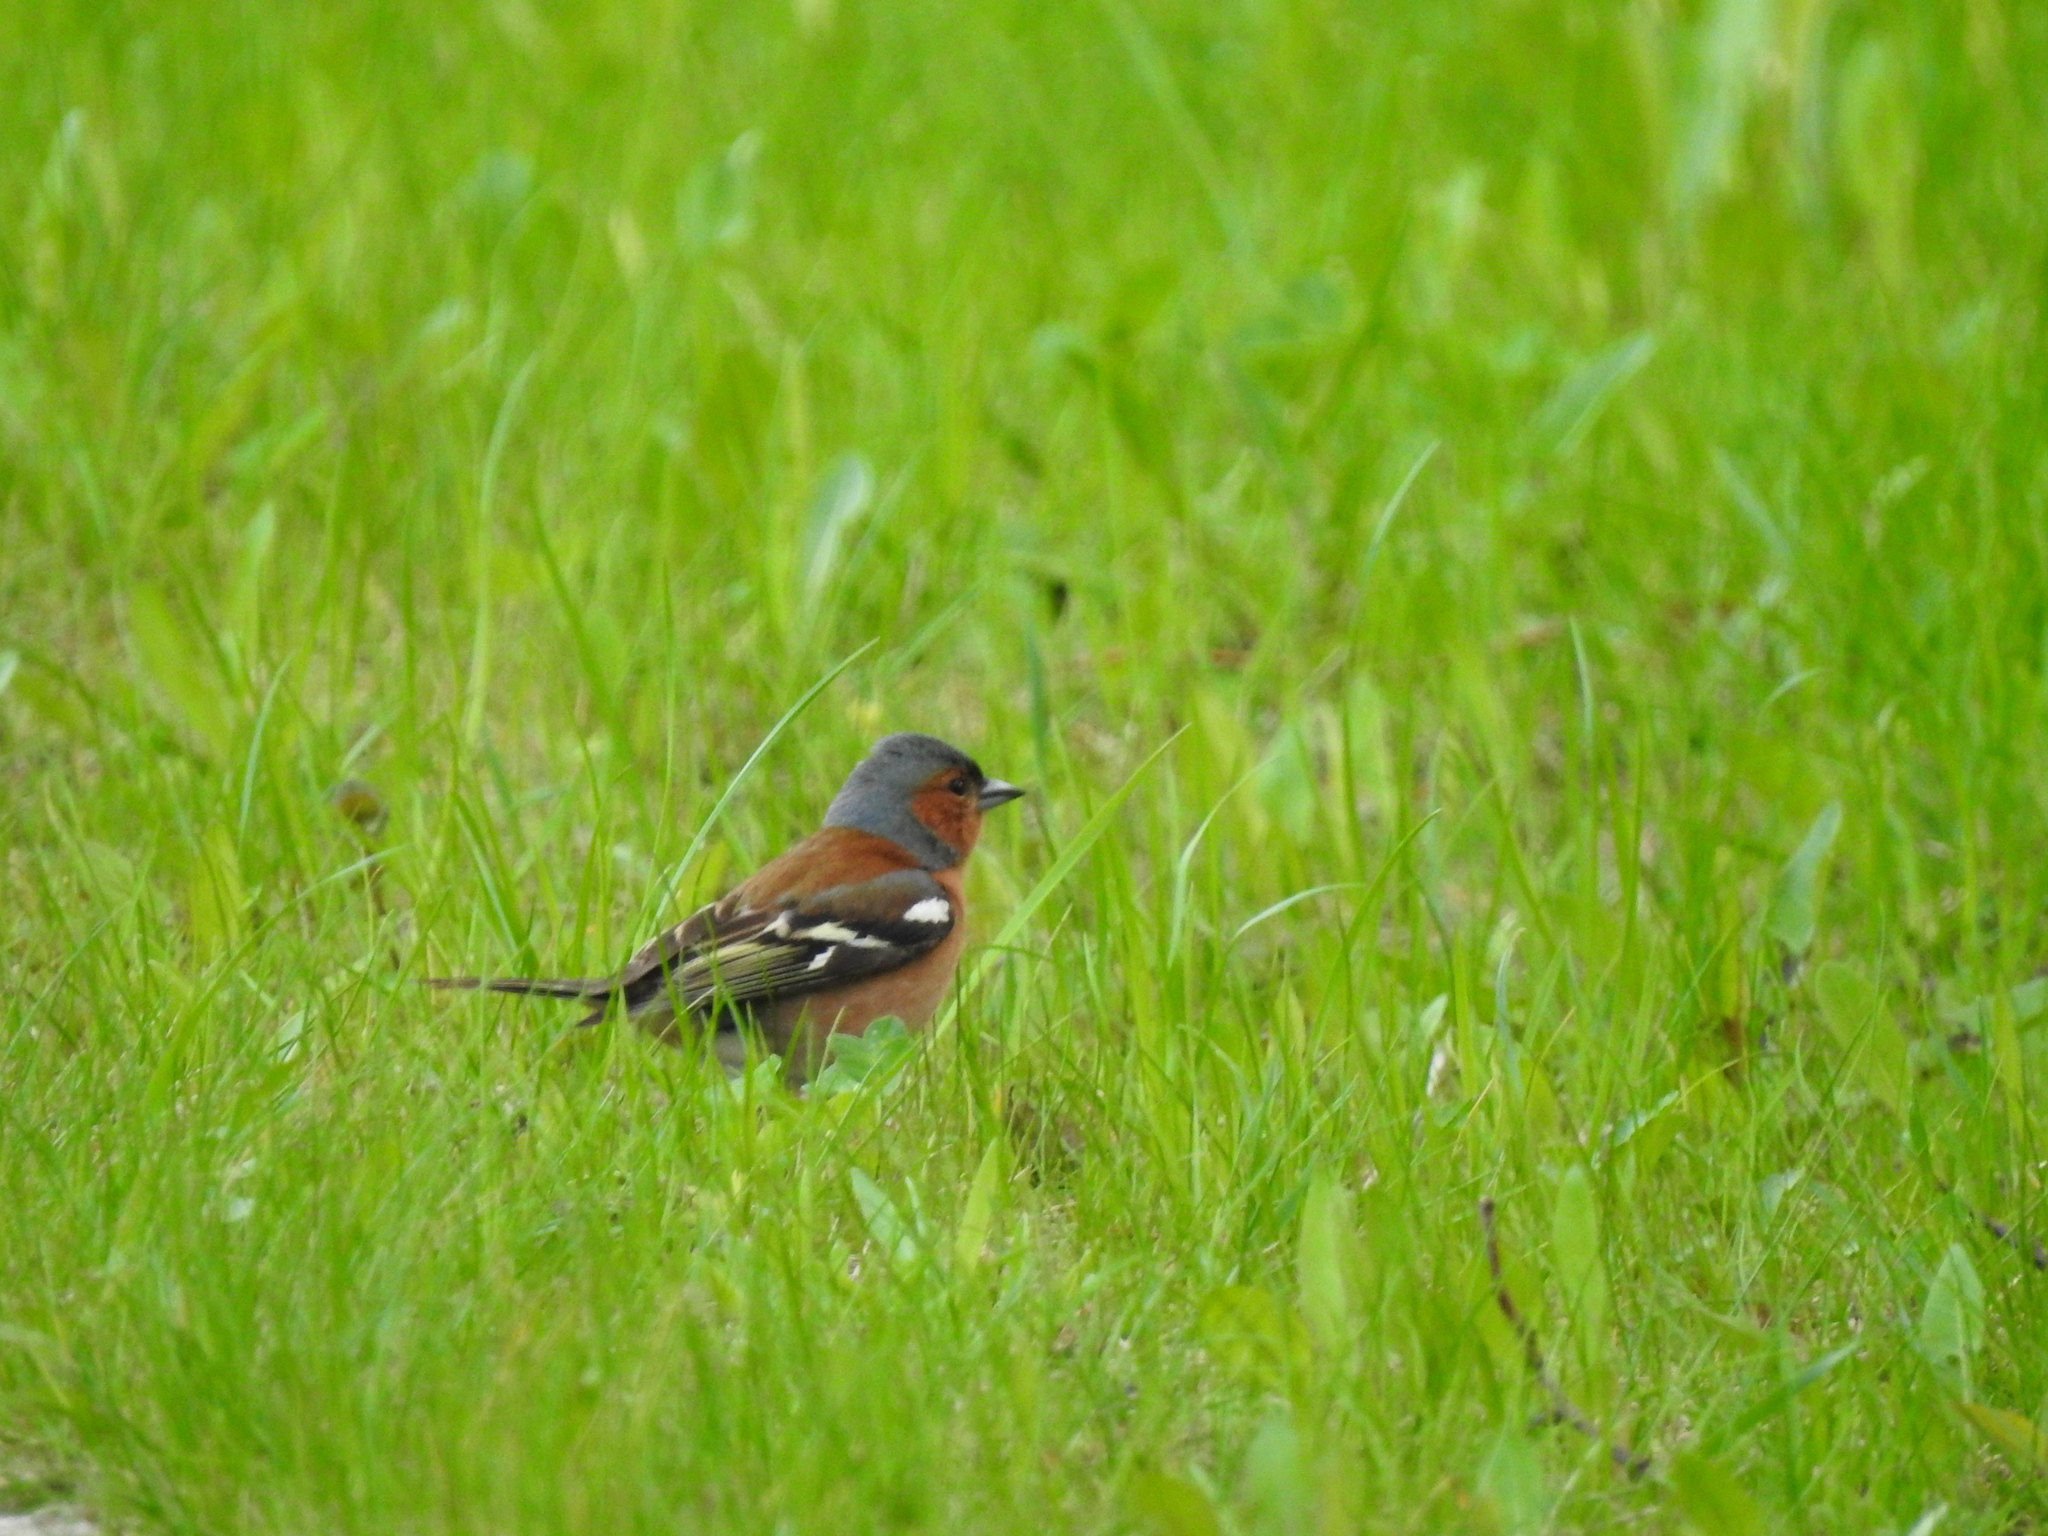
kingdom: Animalia
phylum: Chordata
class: Aves
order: Passeriformes
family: Fringillidae
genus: Fringilla
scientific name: Fringilla coelebs
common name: Common chaffinch
